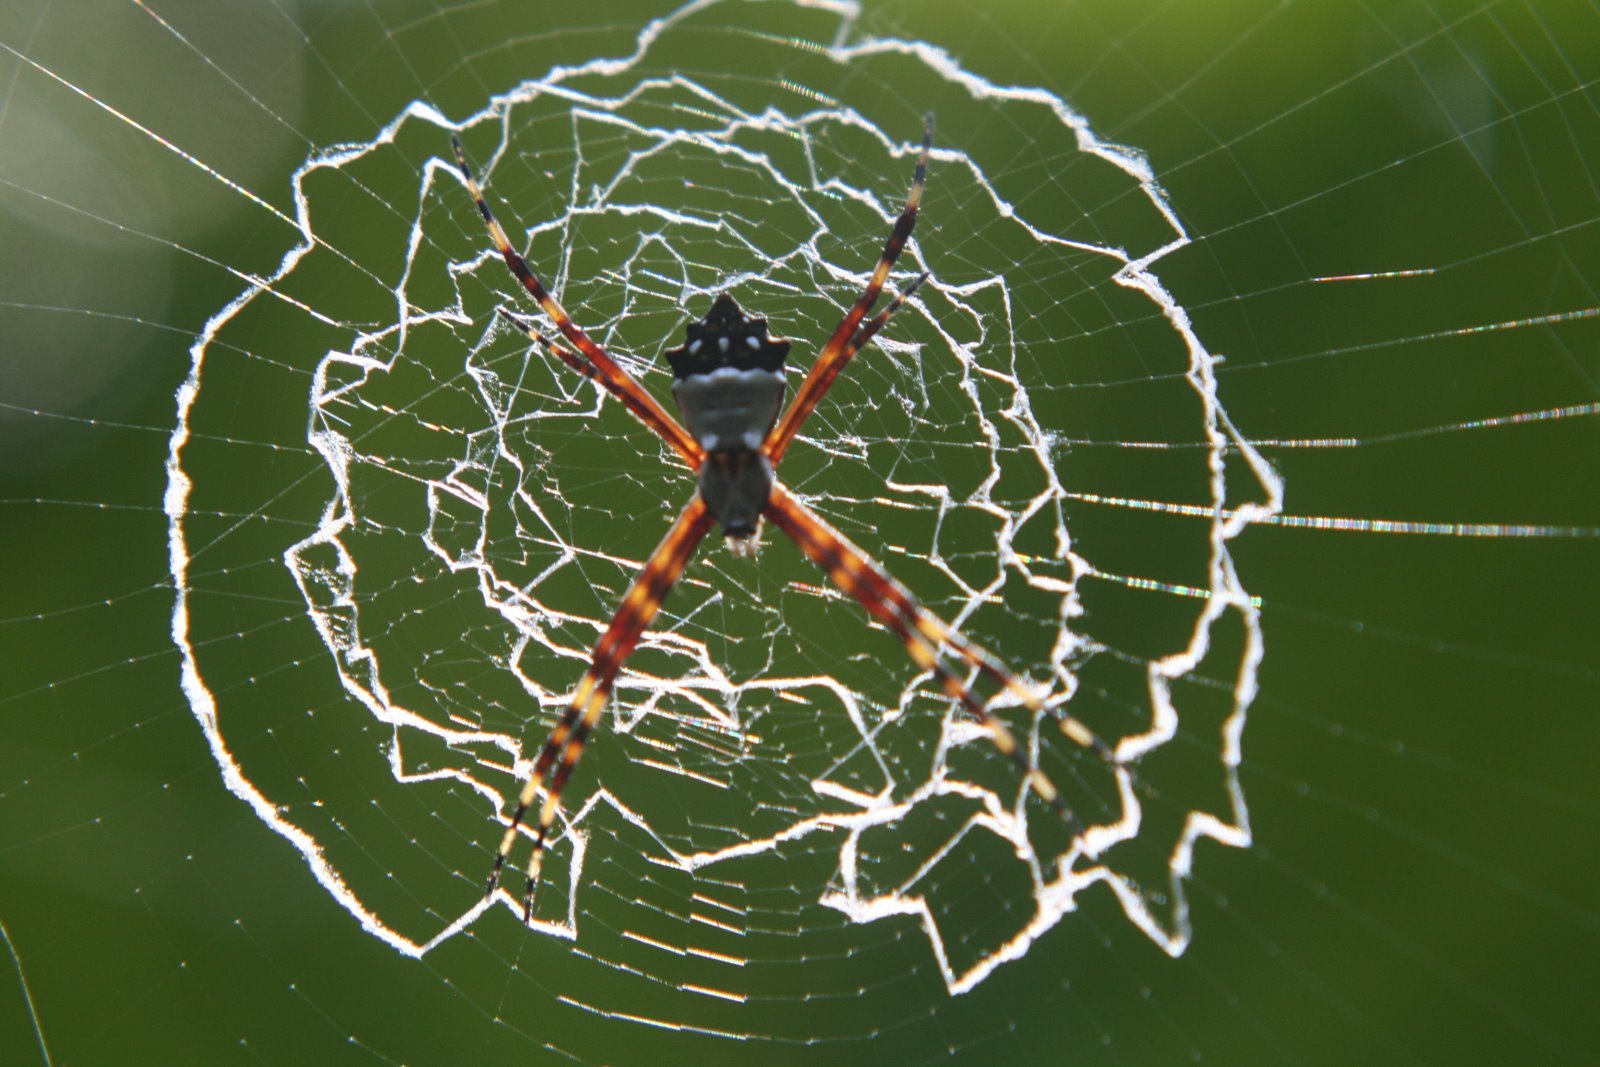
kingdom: Animalia
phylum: Arthropoda
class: Arachnida
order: Araneae
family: Araneidae
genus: Argiope
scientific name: Argiope argentata
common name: Orb weavers
